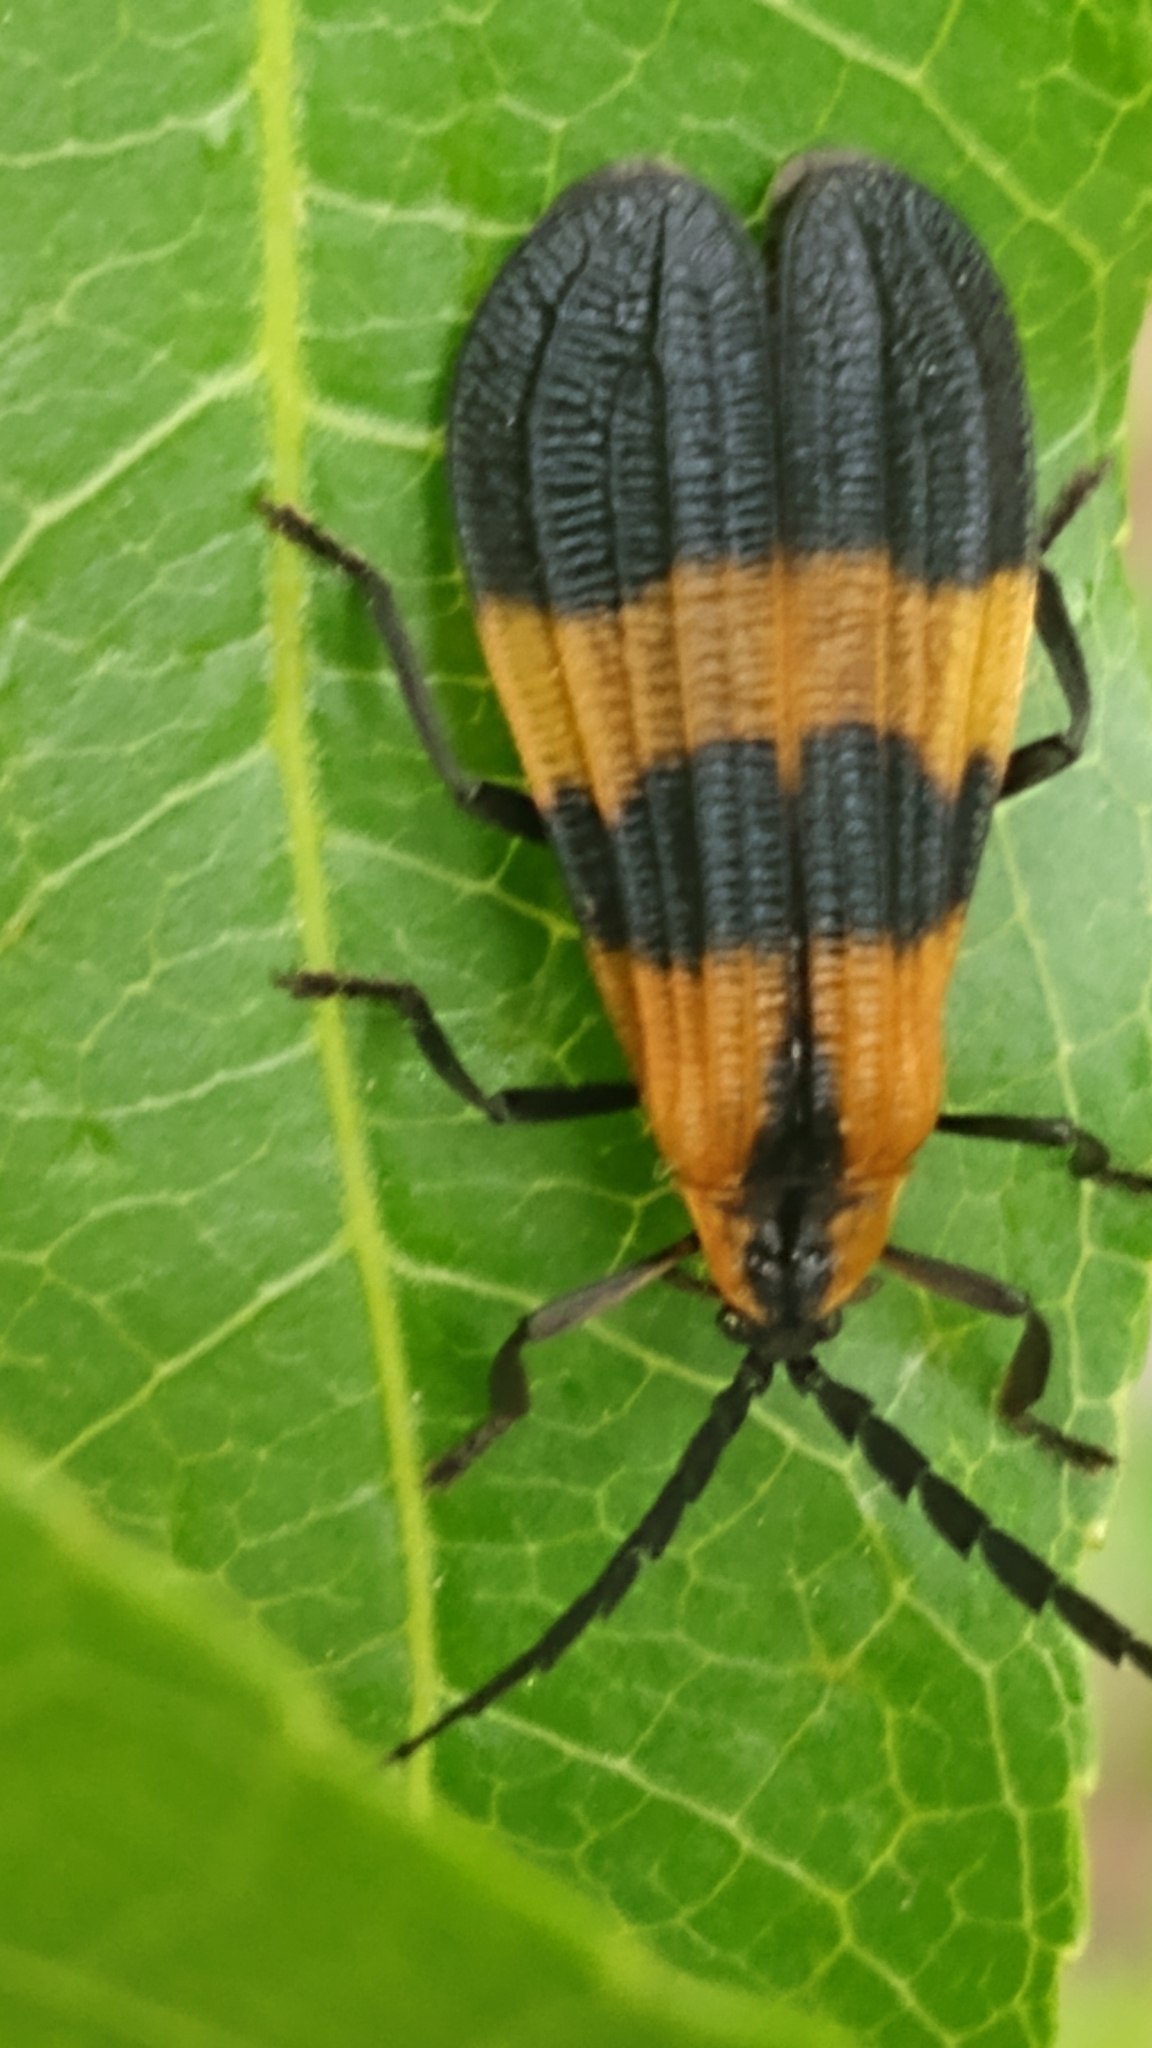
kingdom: Animalia
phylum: Arthropoda
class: Insecta
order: Coleoptera
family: Lycidae
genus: Calopteron
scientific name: Calopteron discrepans
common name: Banded net-winged beetle
